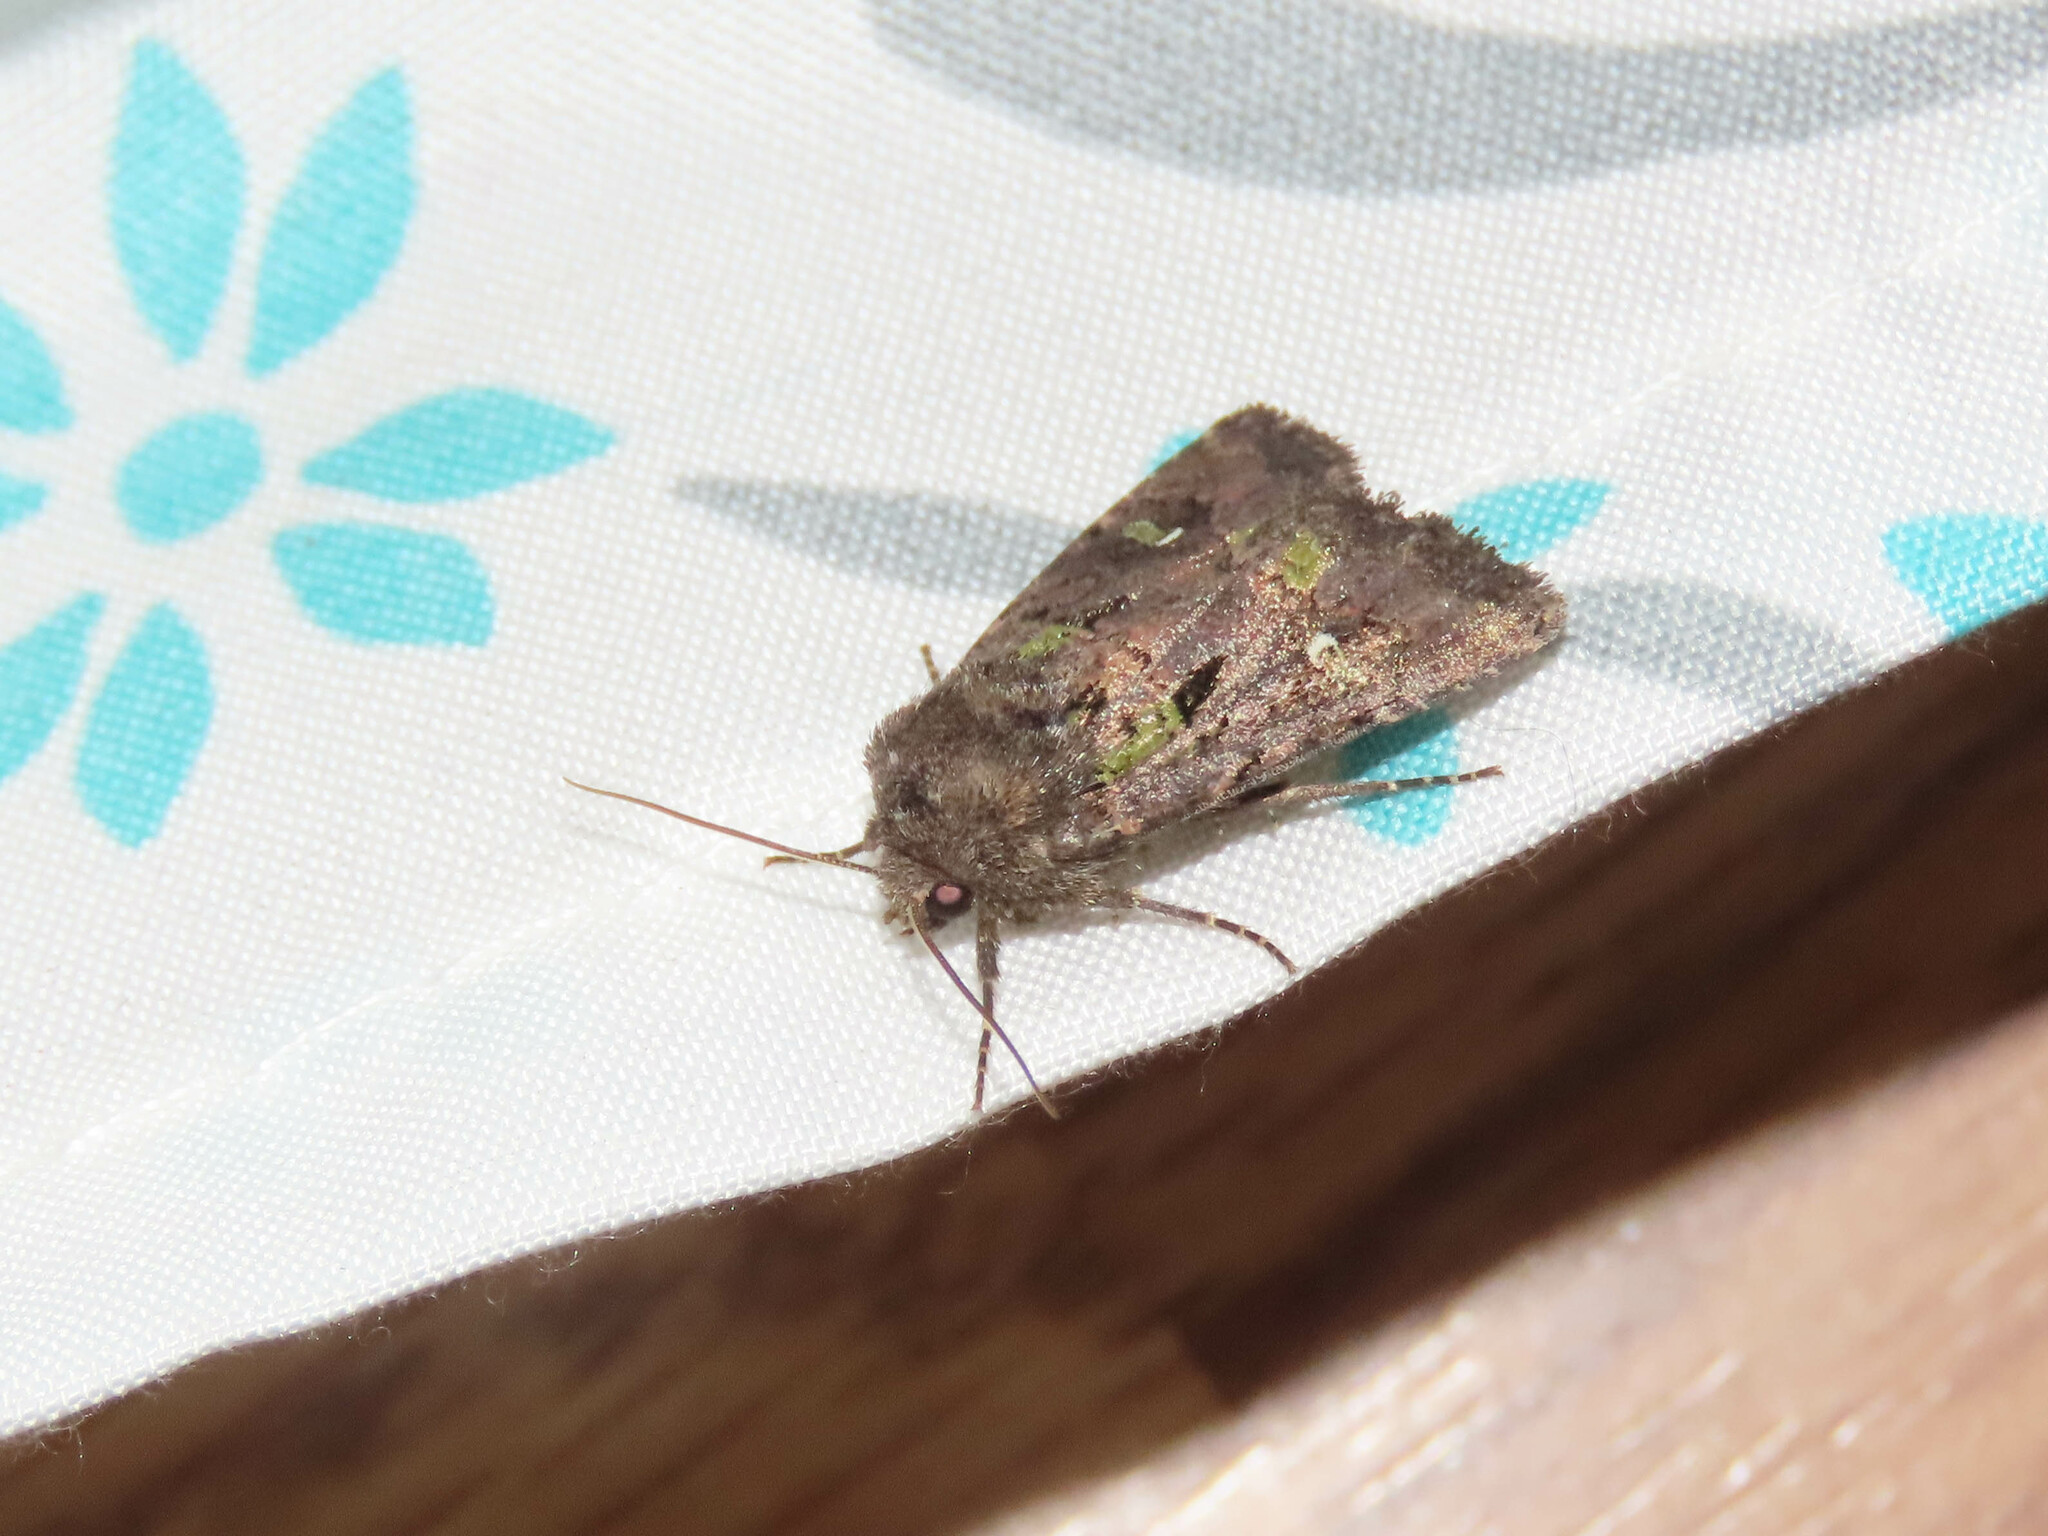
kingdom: Animalia
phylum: Arthropoda
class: Insecta
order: Lepidoptera
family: Noctuidae
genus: Lacinipolia
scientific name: Lacinipolia renigera
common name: Kidney-spotted minor
